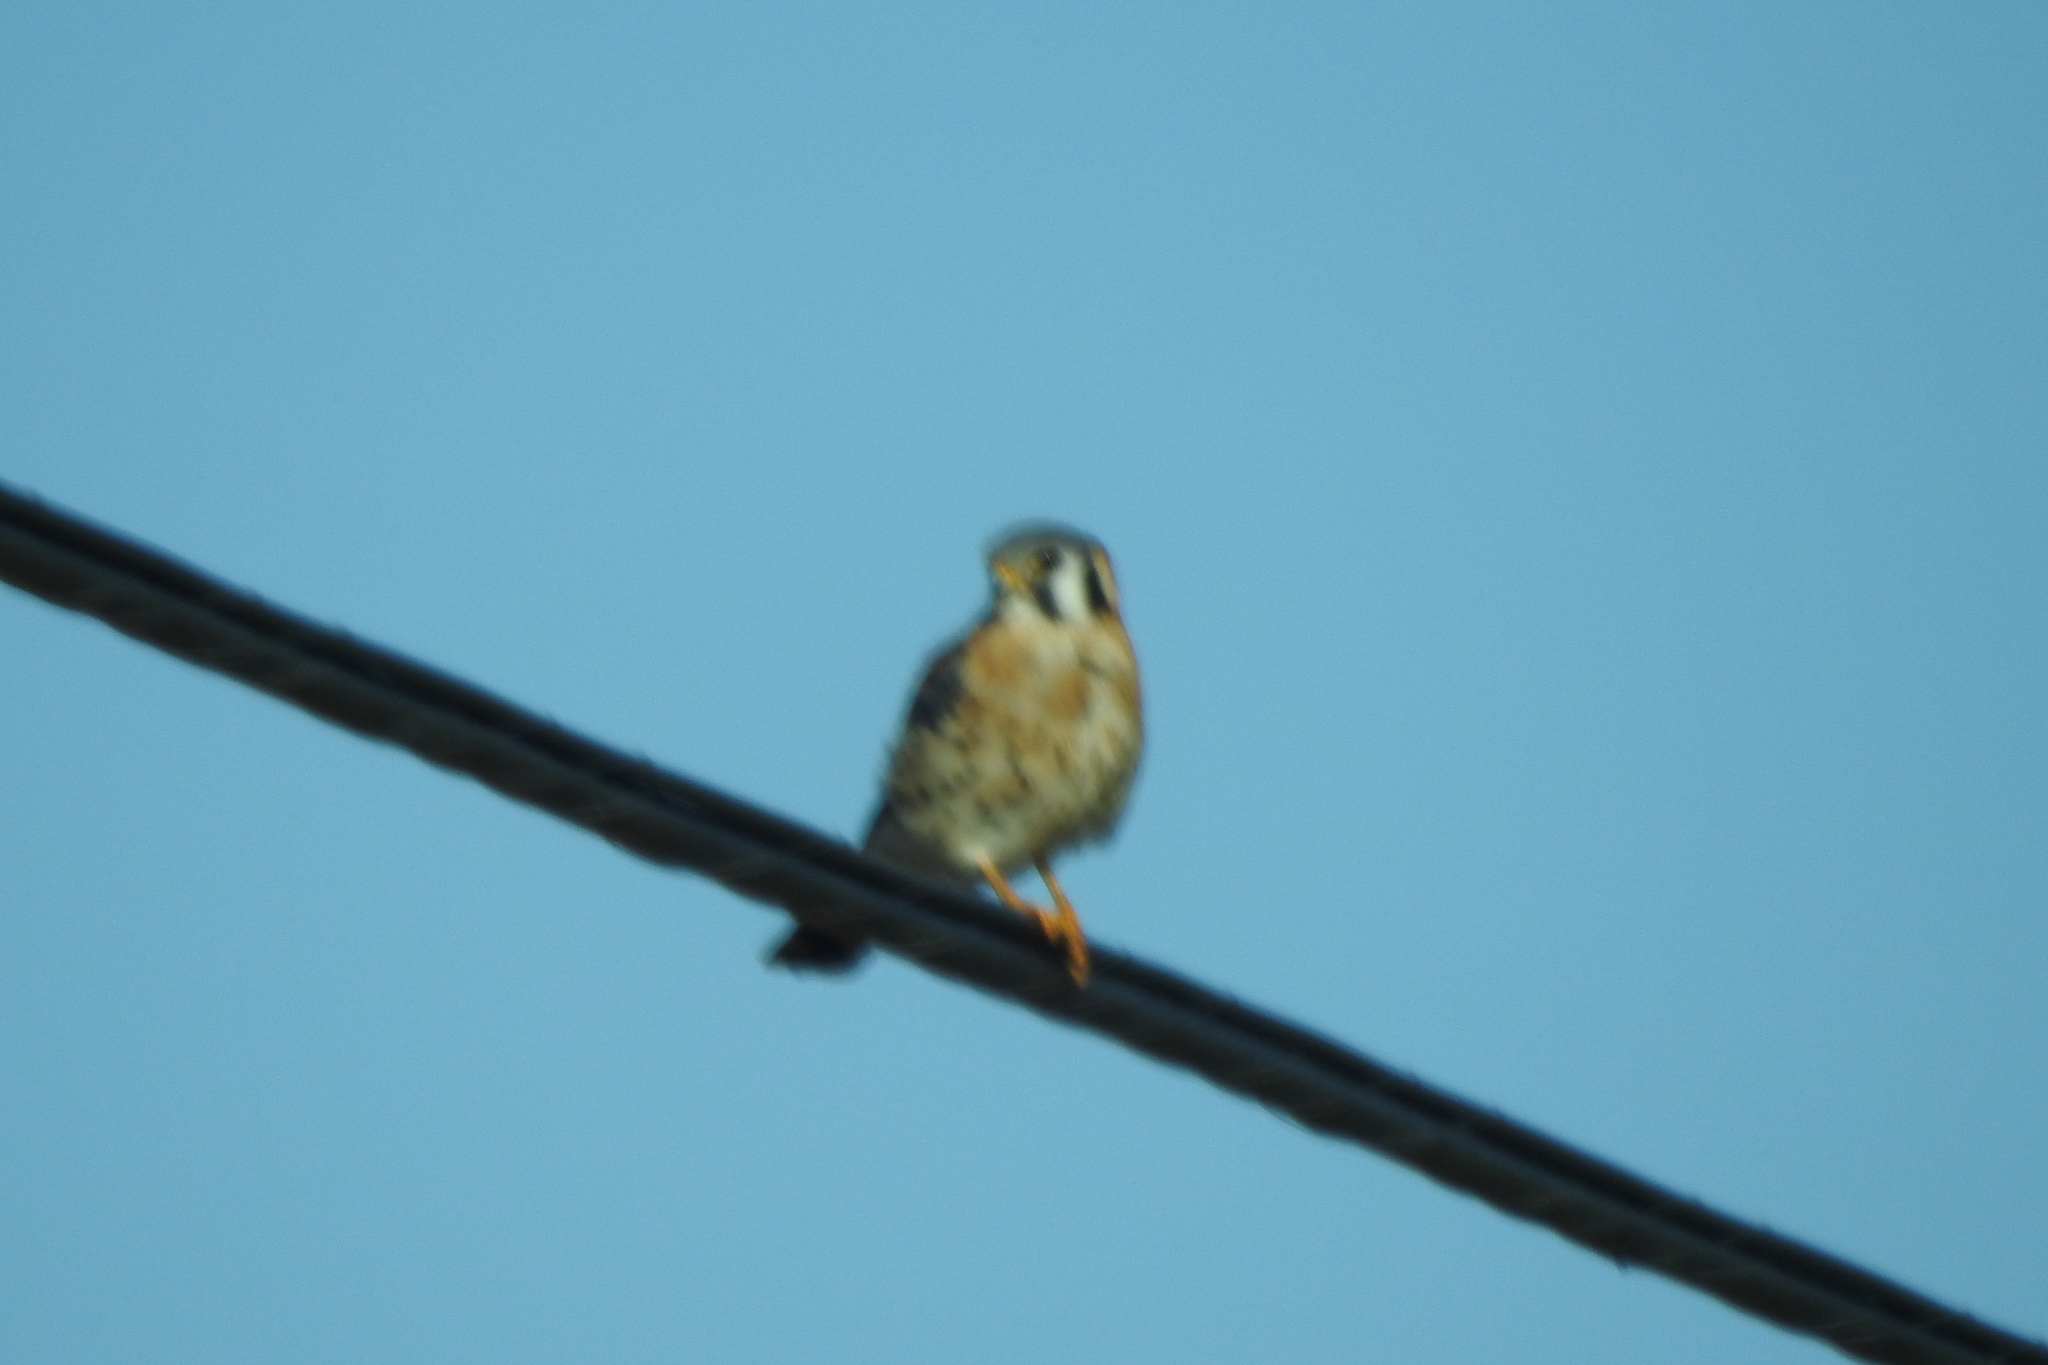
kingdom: Animalia
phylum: Chordata
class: Aves
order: Falconiformes
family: Falconidae
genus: Falco
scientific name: Falco sparverius
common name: American kestrel
